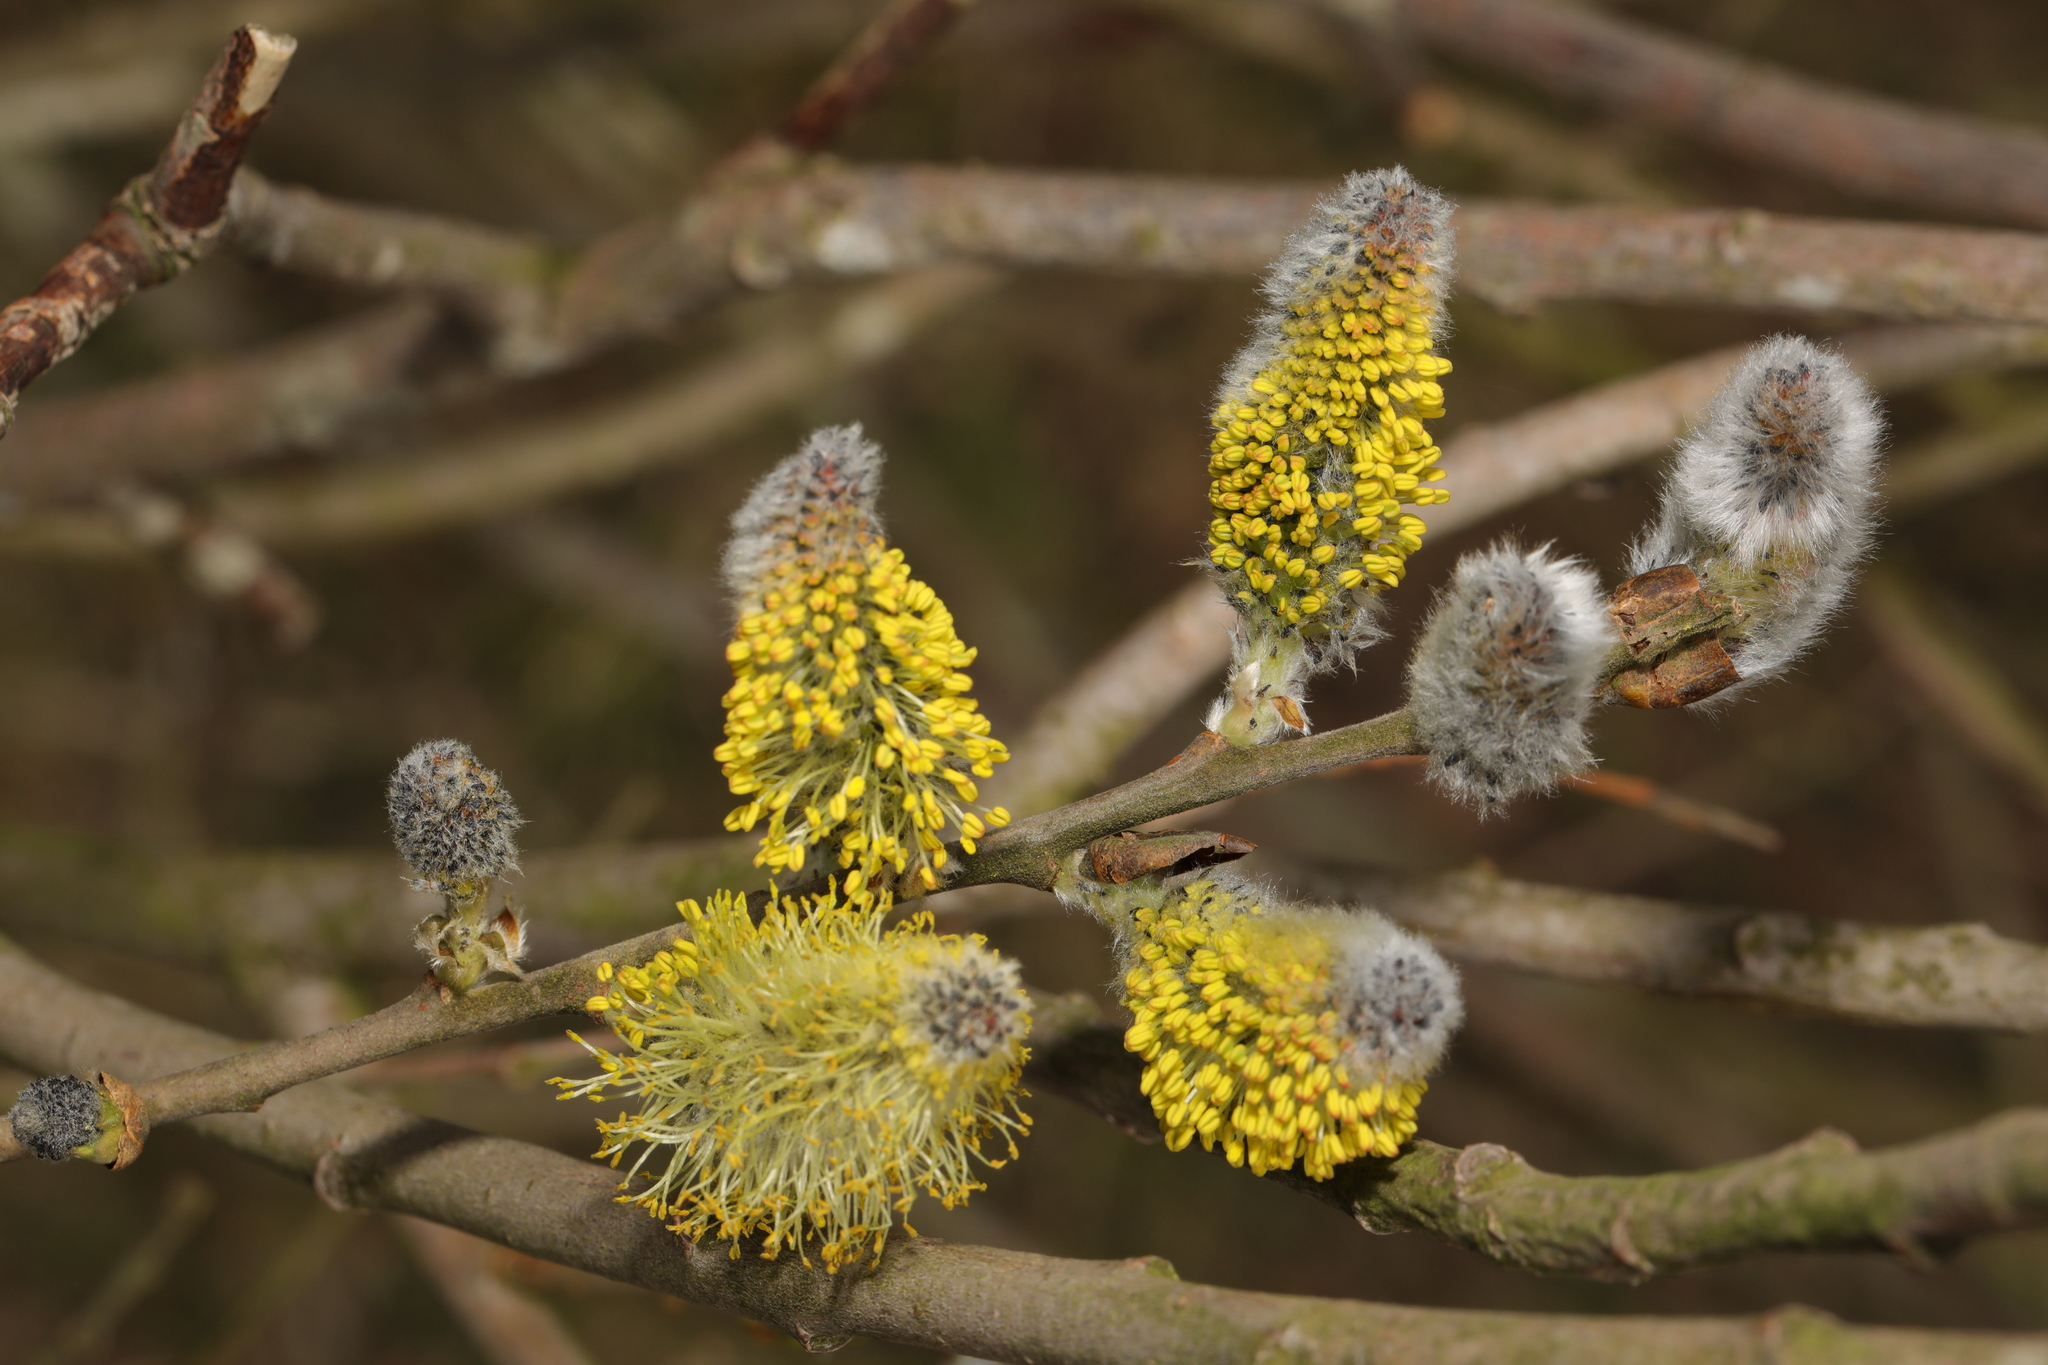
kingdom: Plantae
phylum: Tracheophyta
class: Magnoliopsida
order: Malpighiales
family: Salicaceae
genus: Salix
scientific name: Salix caprea
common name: Goat willow
